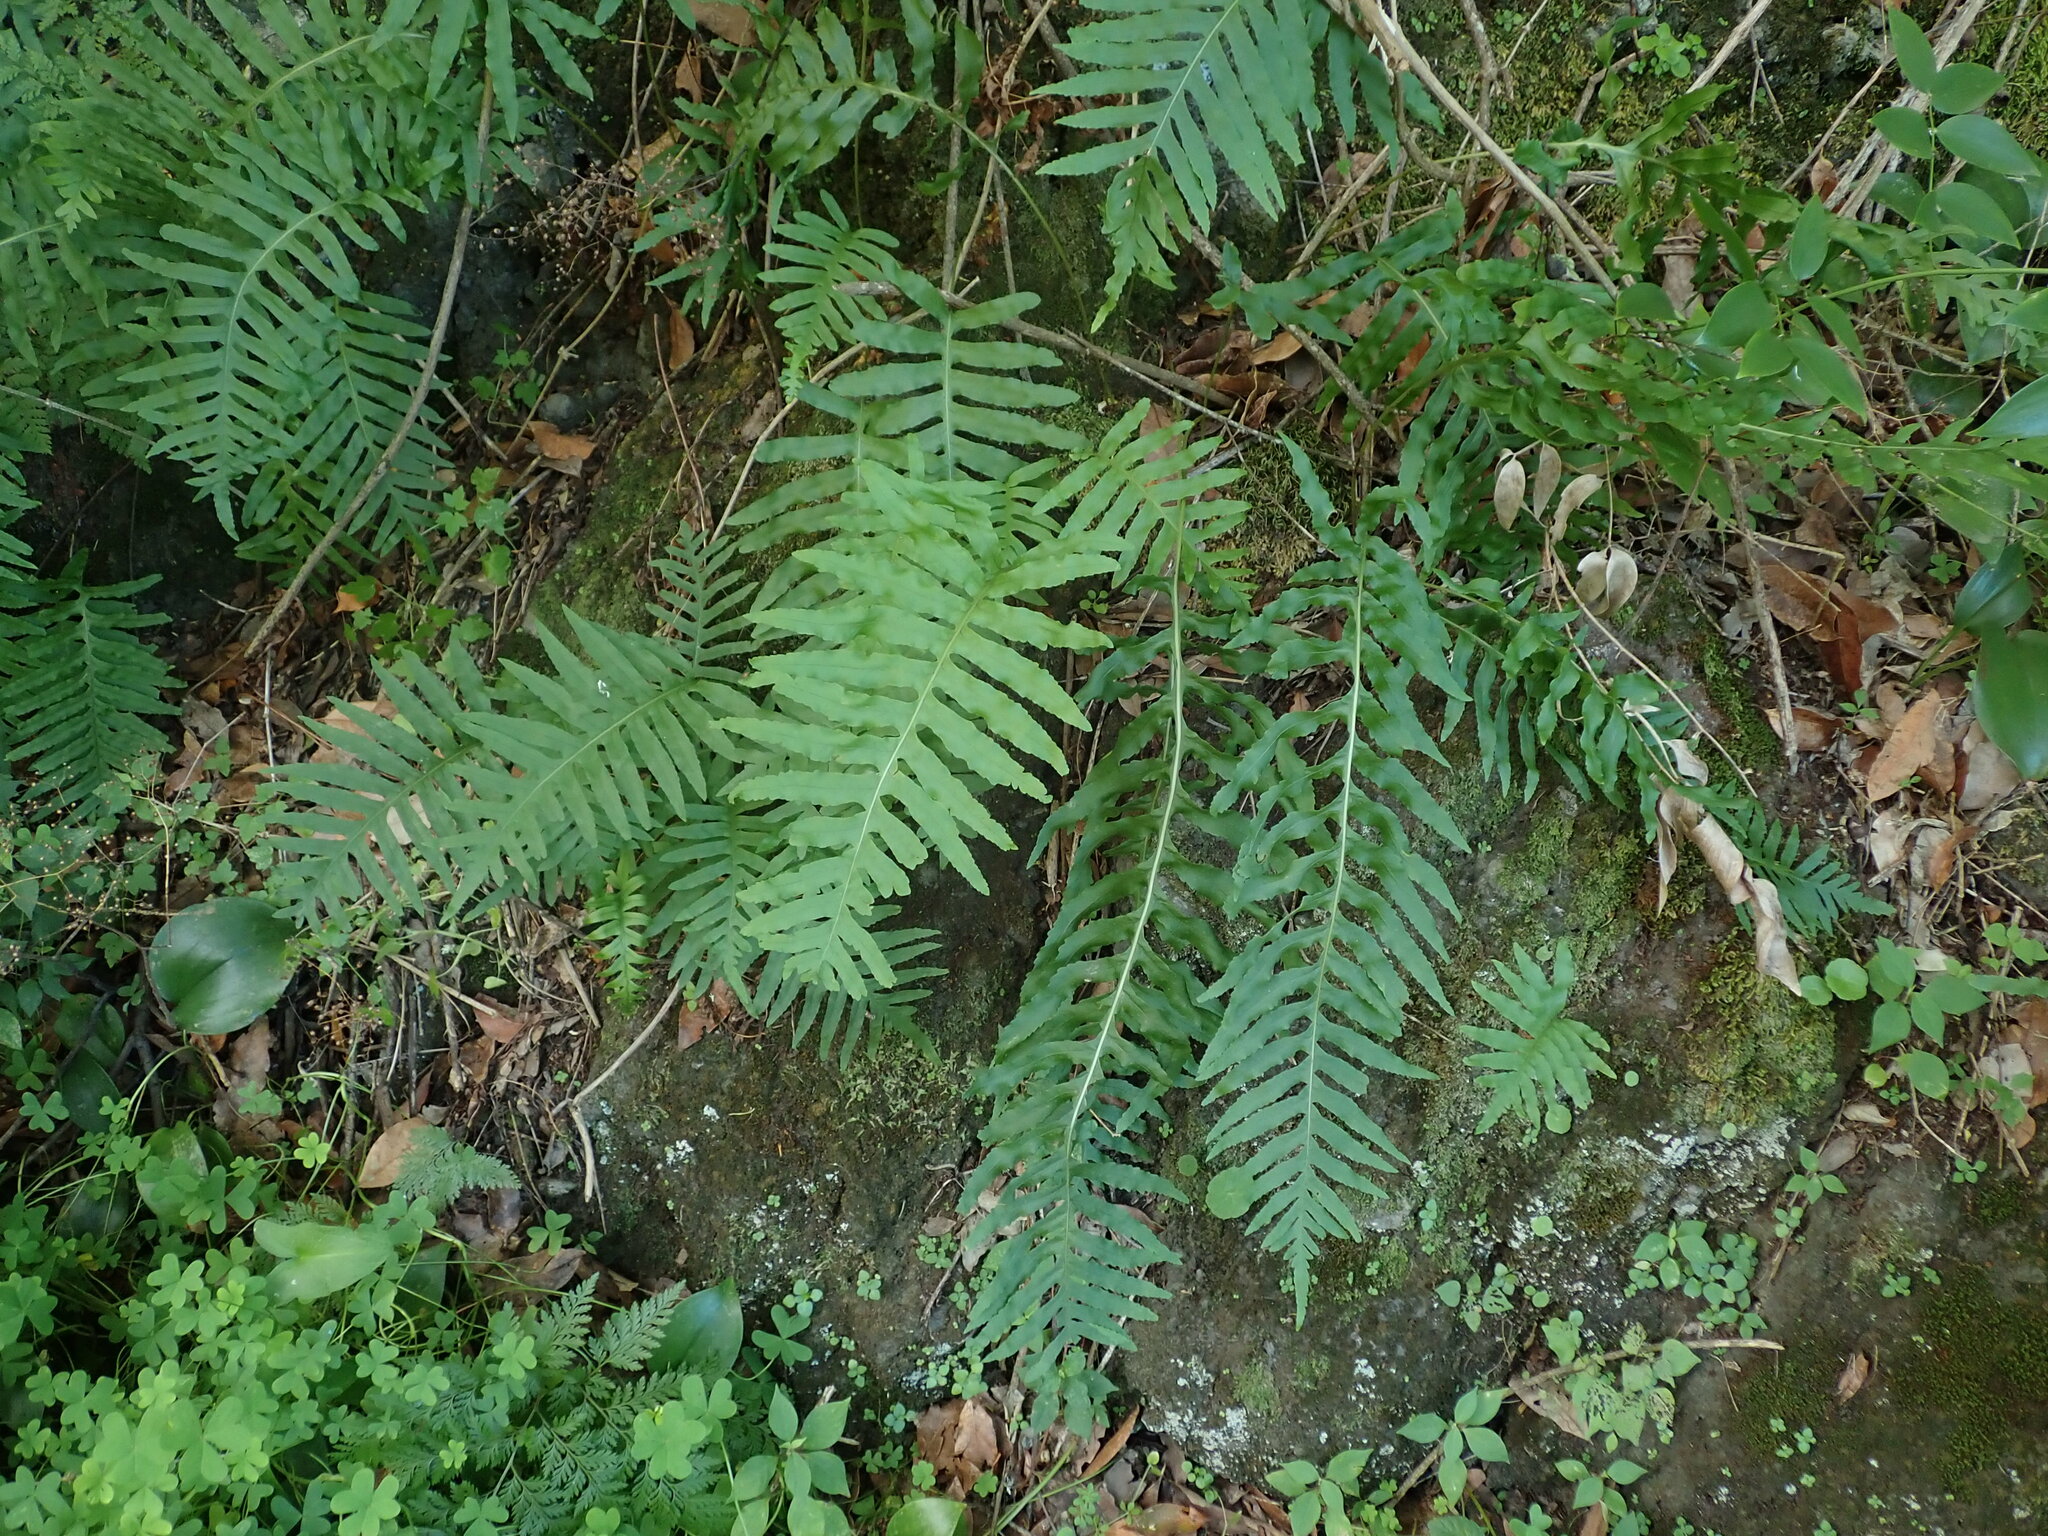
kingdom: Plantae
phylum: Tracheophyta
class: Polypodiopsida
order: Polypodiales
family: Polypodiaceae
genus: Polypodium
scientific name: Polypodium macaronesicum
